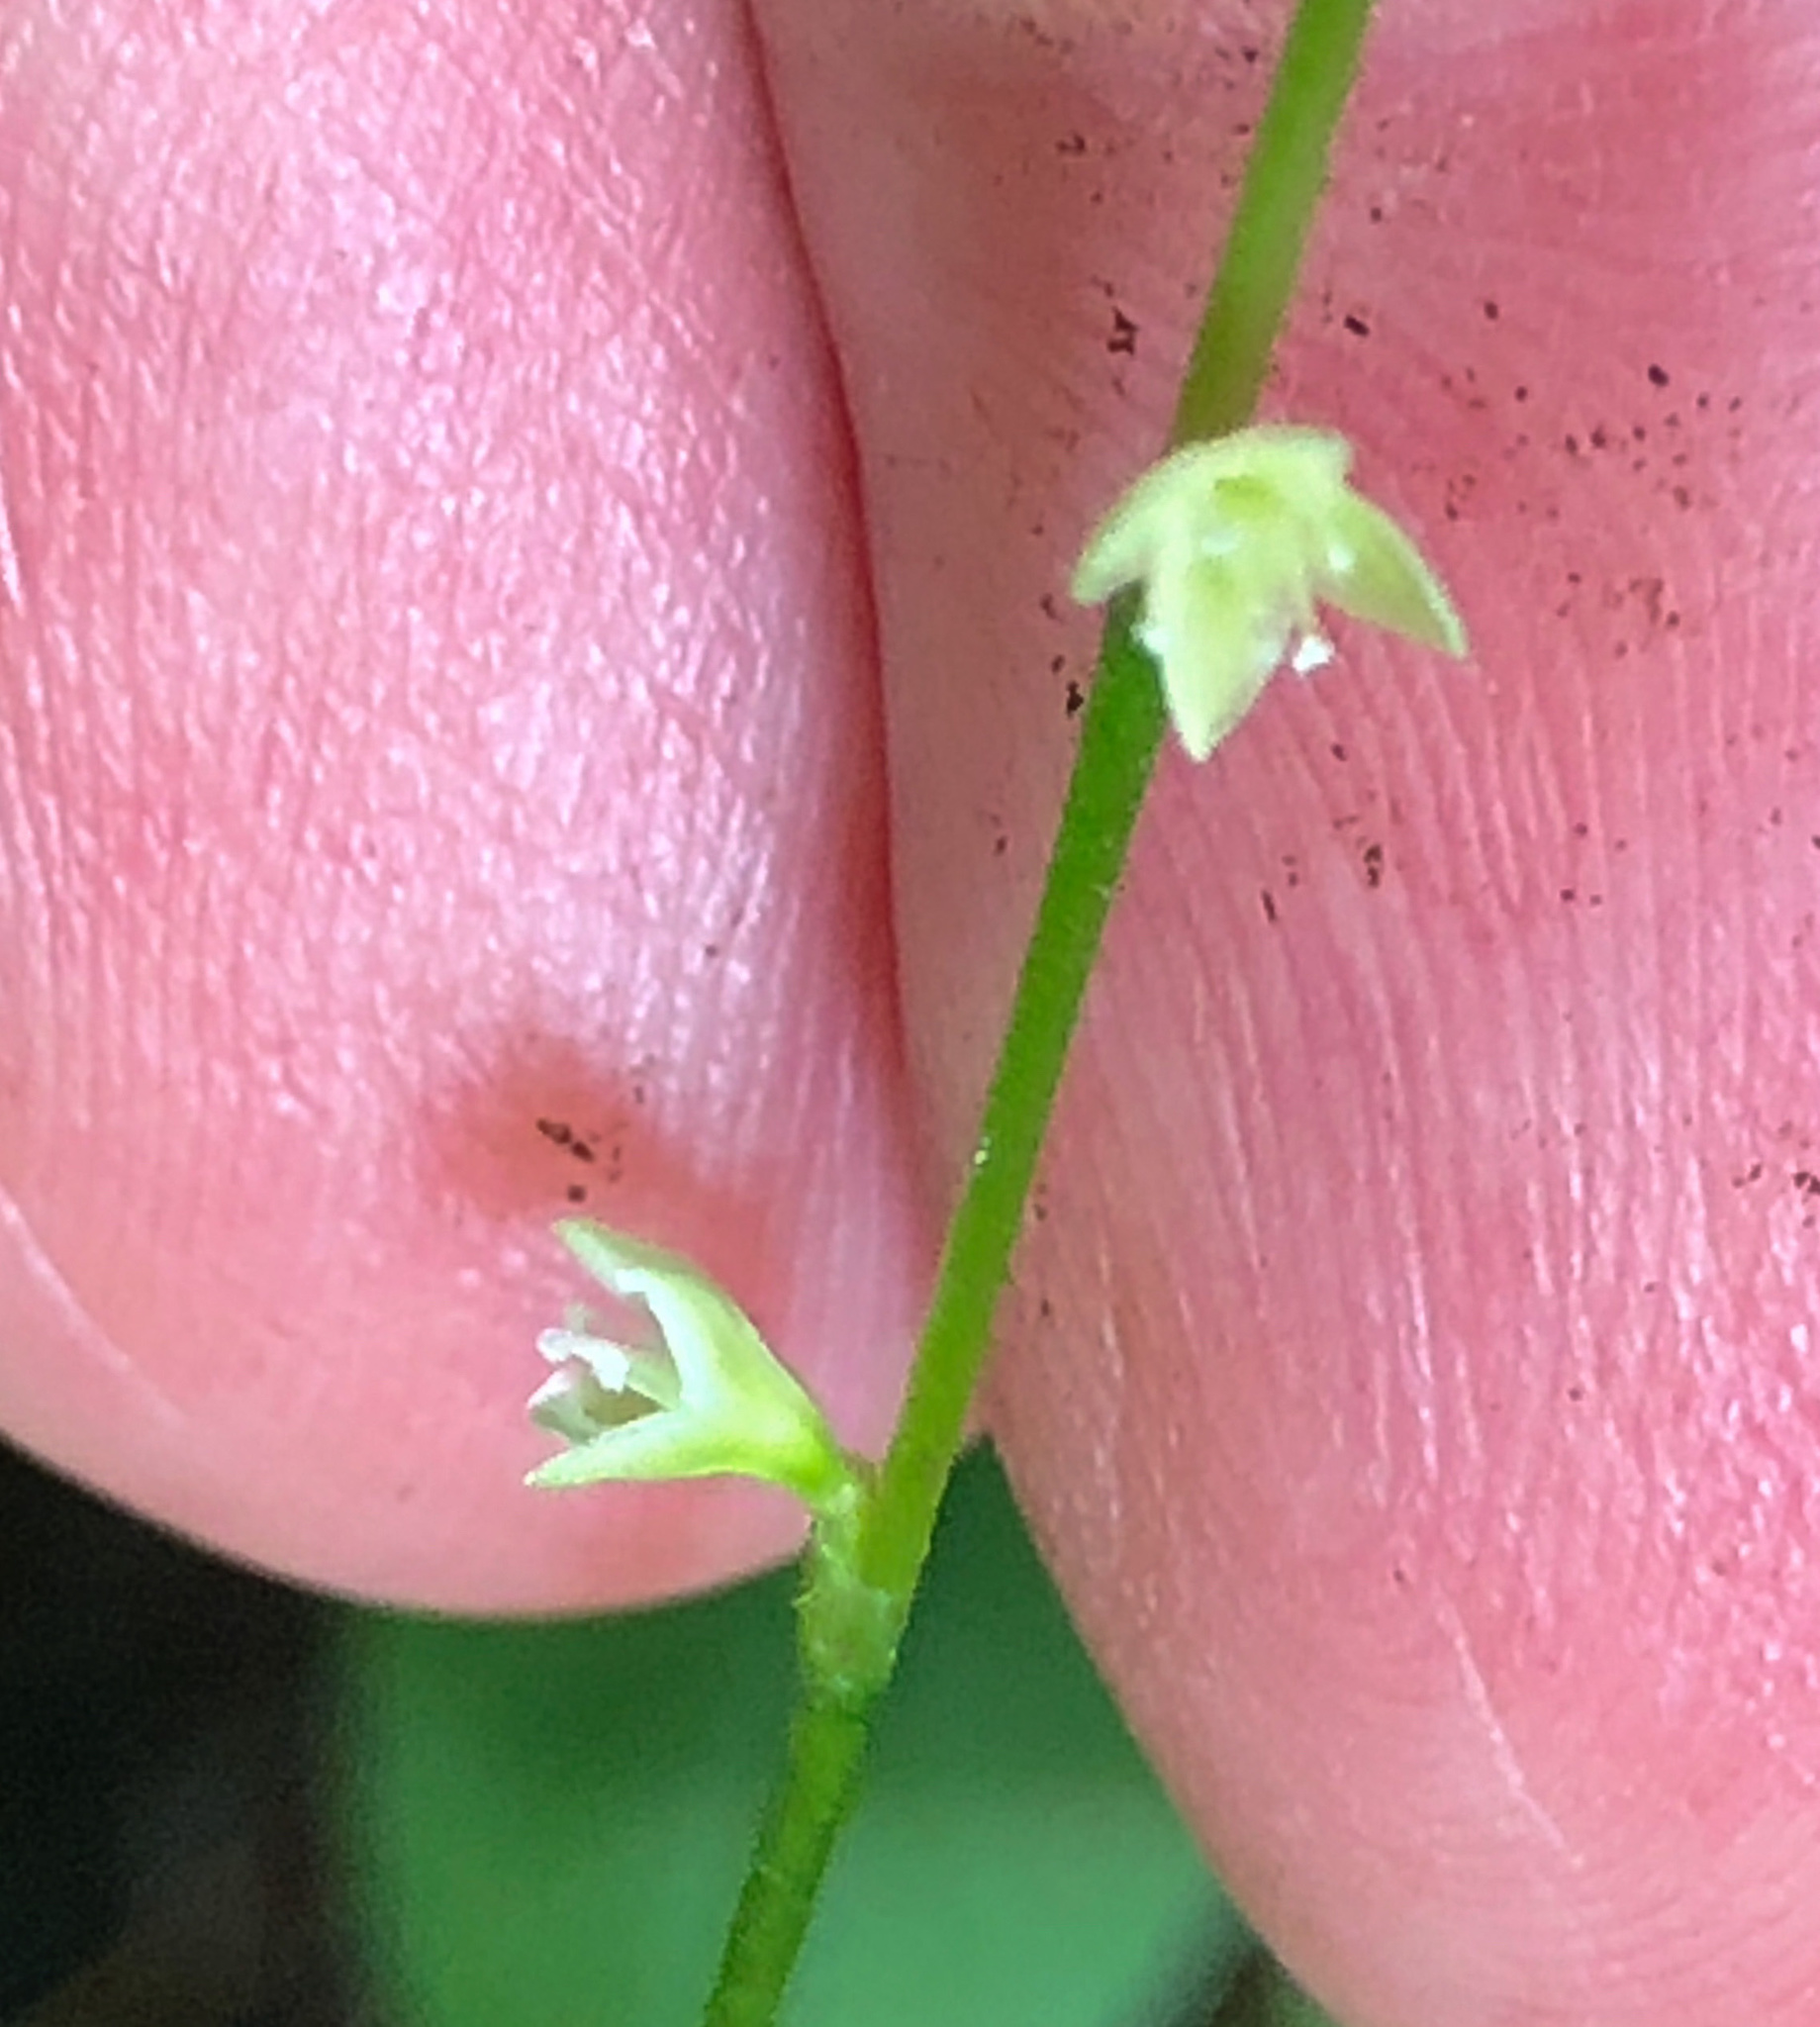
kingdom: Plantae
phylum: Tracheophyta
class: Magnoliopsida
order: Caryophyllales
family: Polygonaceae
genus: Persicaria
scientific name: Persicaria virginiana
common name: Jumpseed
